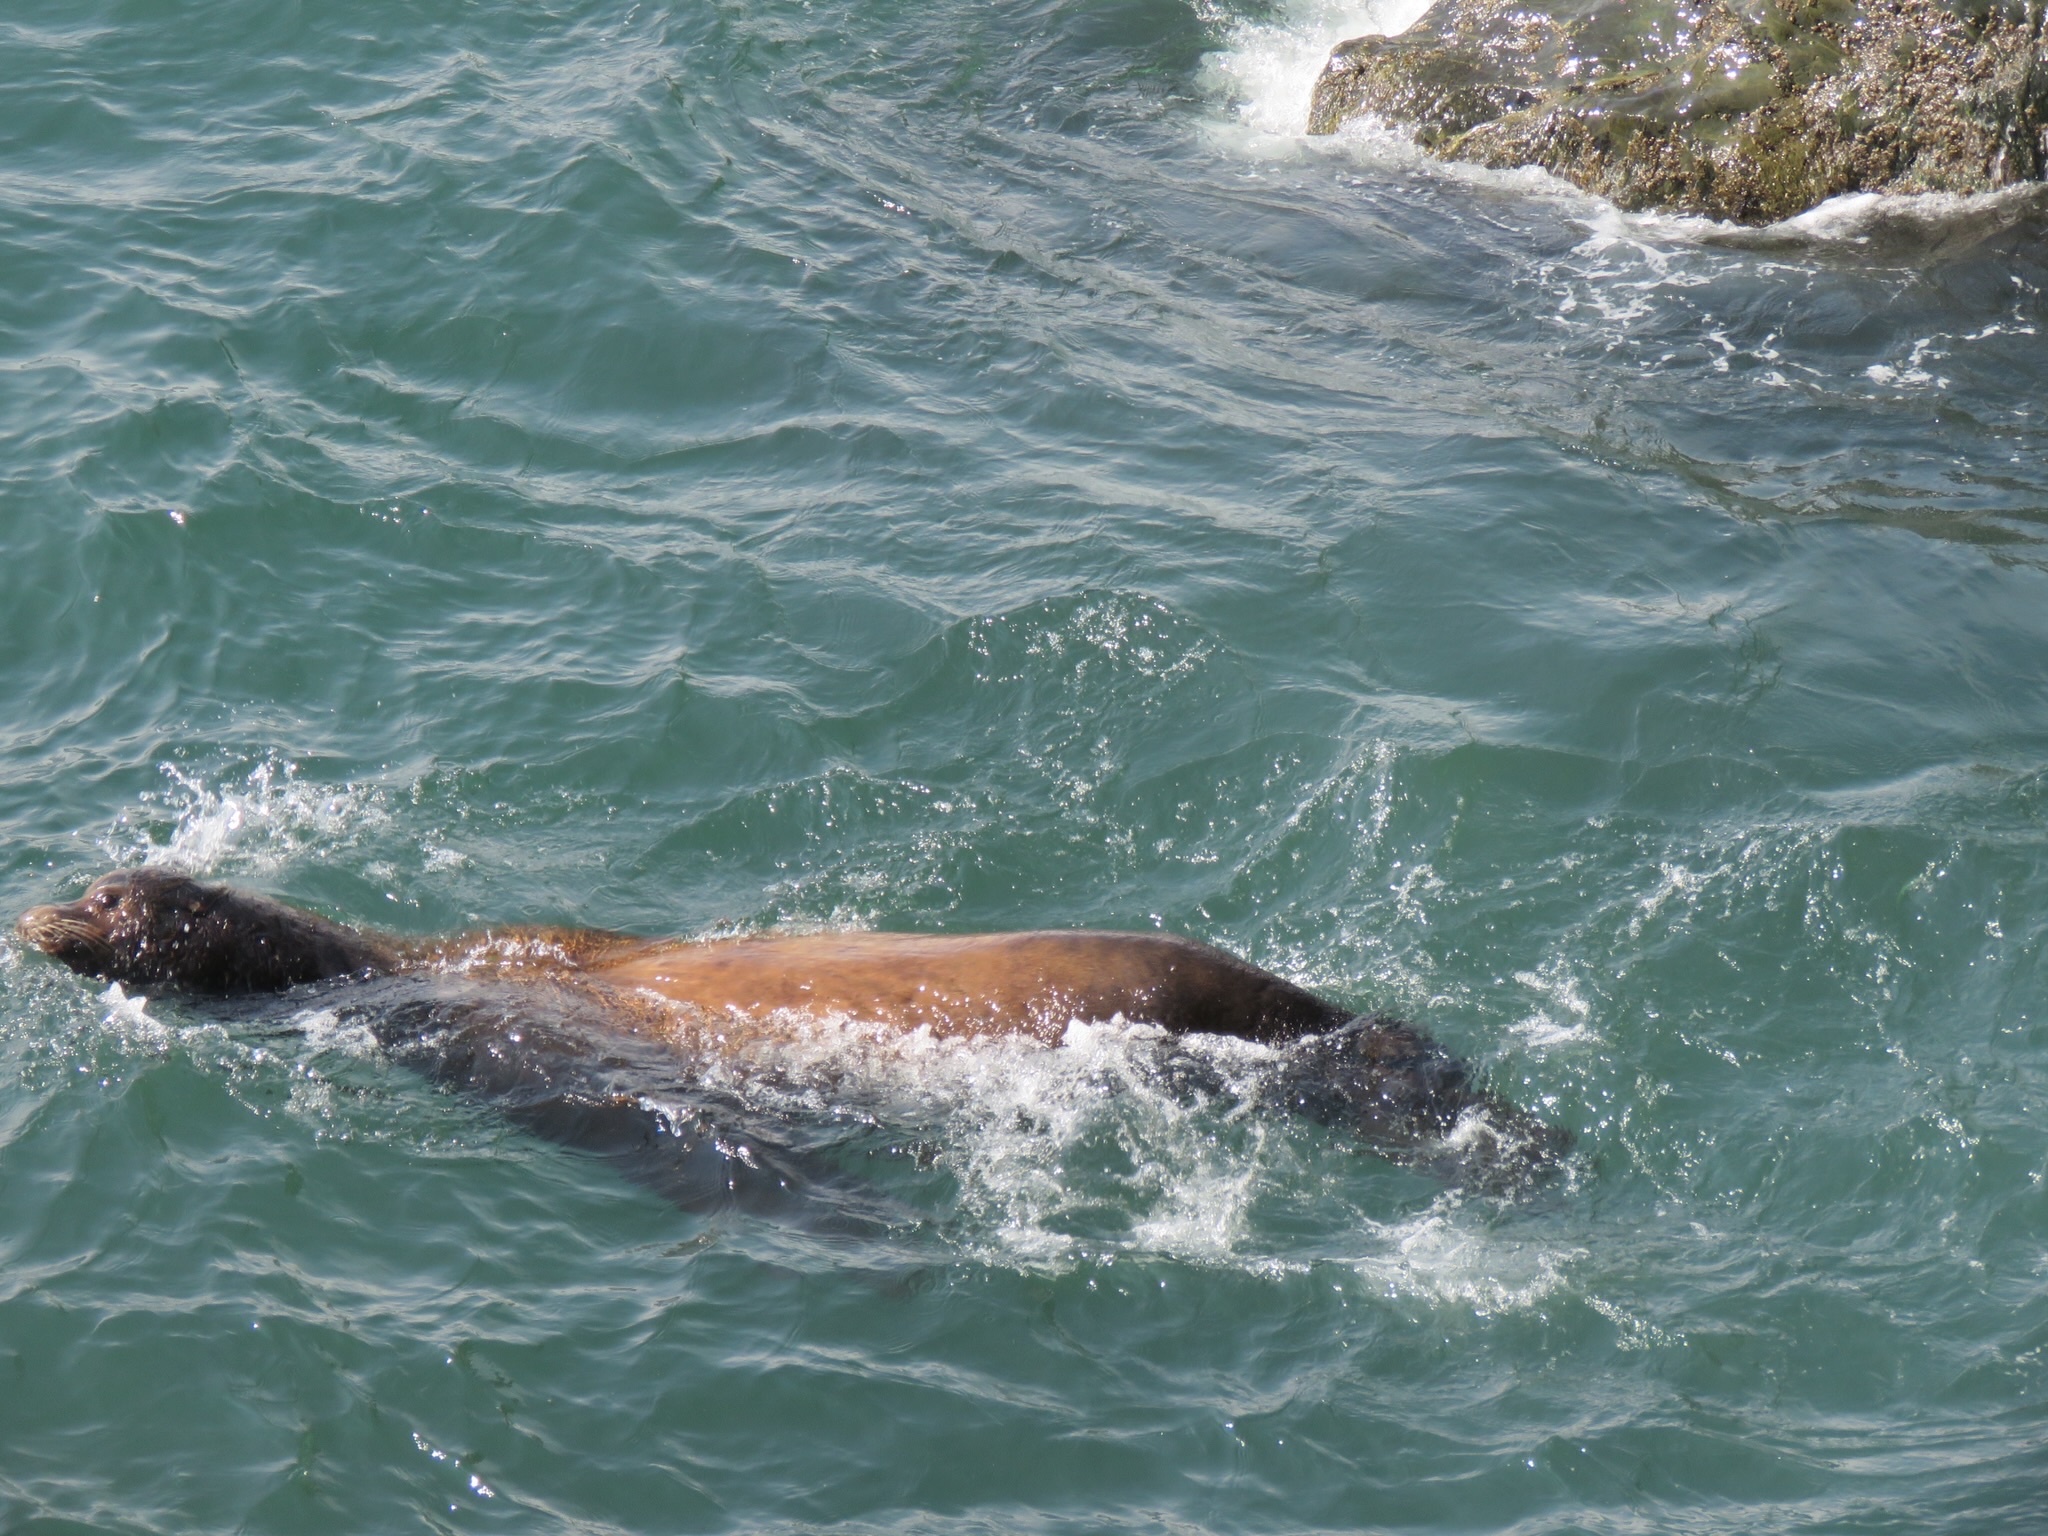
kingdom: Animalia
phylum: Chordata
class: Mammalia
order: Carnivora
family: Otariidae
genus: Zalophus
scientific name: Zalophus californianus
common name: California sea lion
